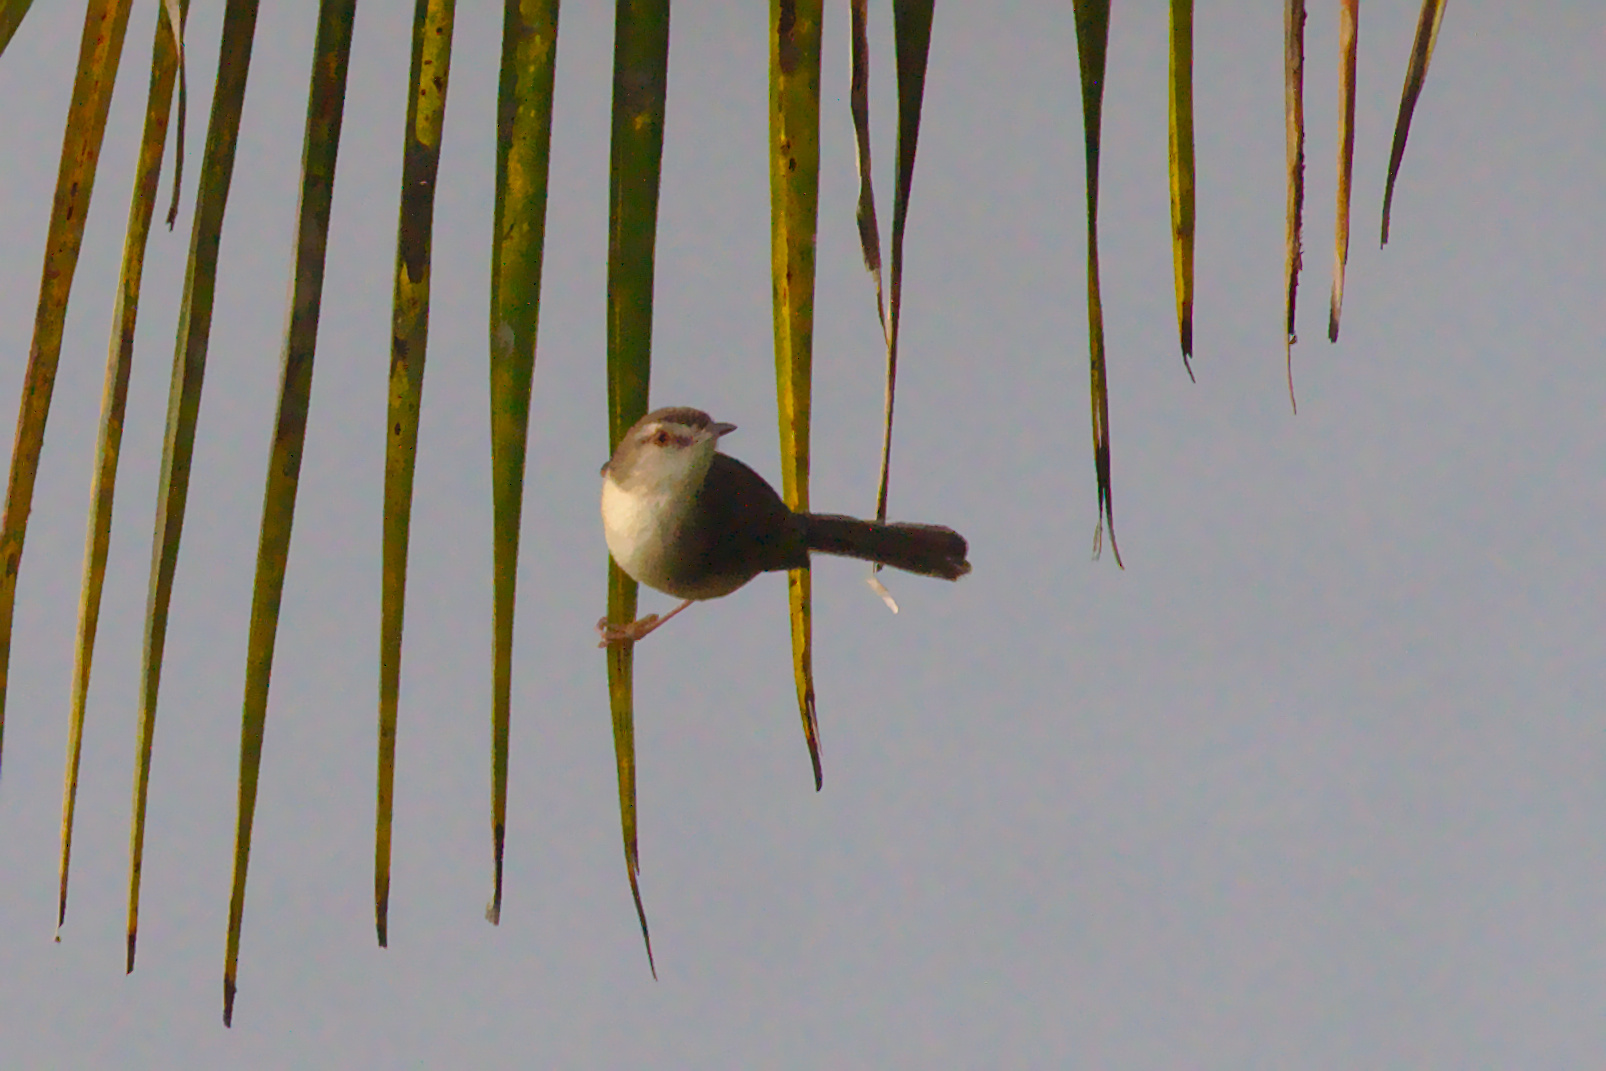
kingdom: Animalia
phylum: Chordata
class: Aves
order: Passeriformes
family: Cisticolidae
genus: Prinia
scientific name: Prinia inornata
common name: Plain prinia
